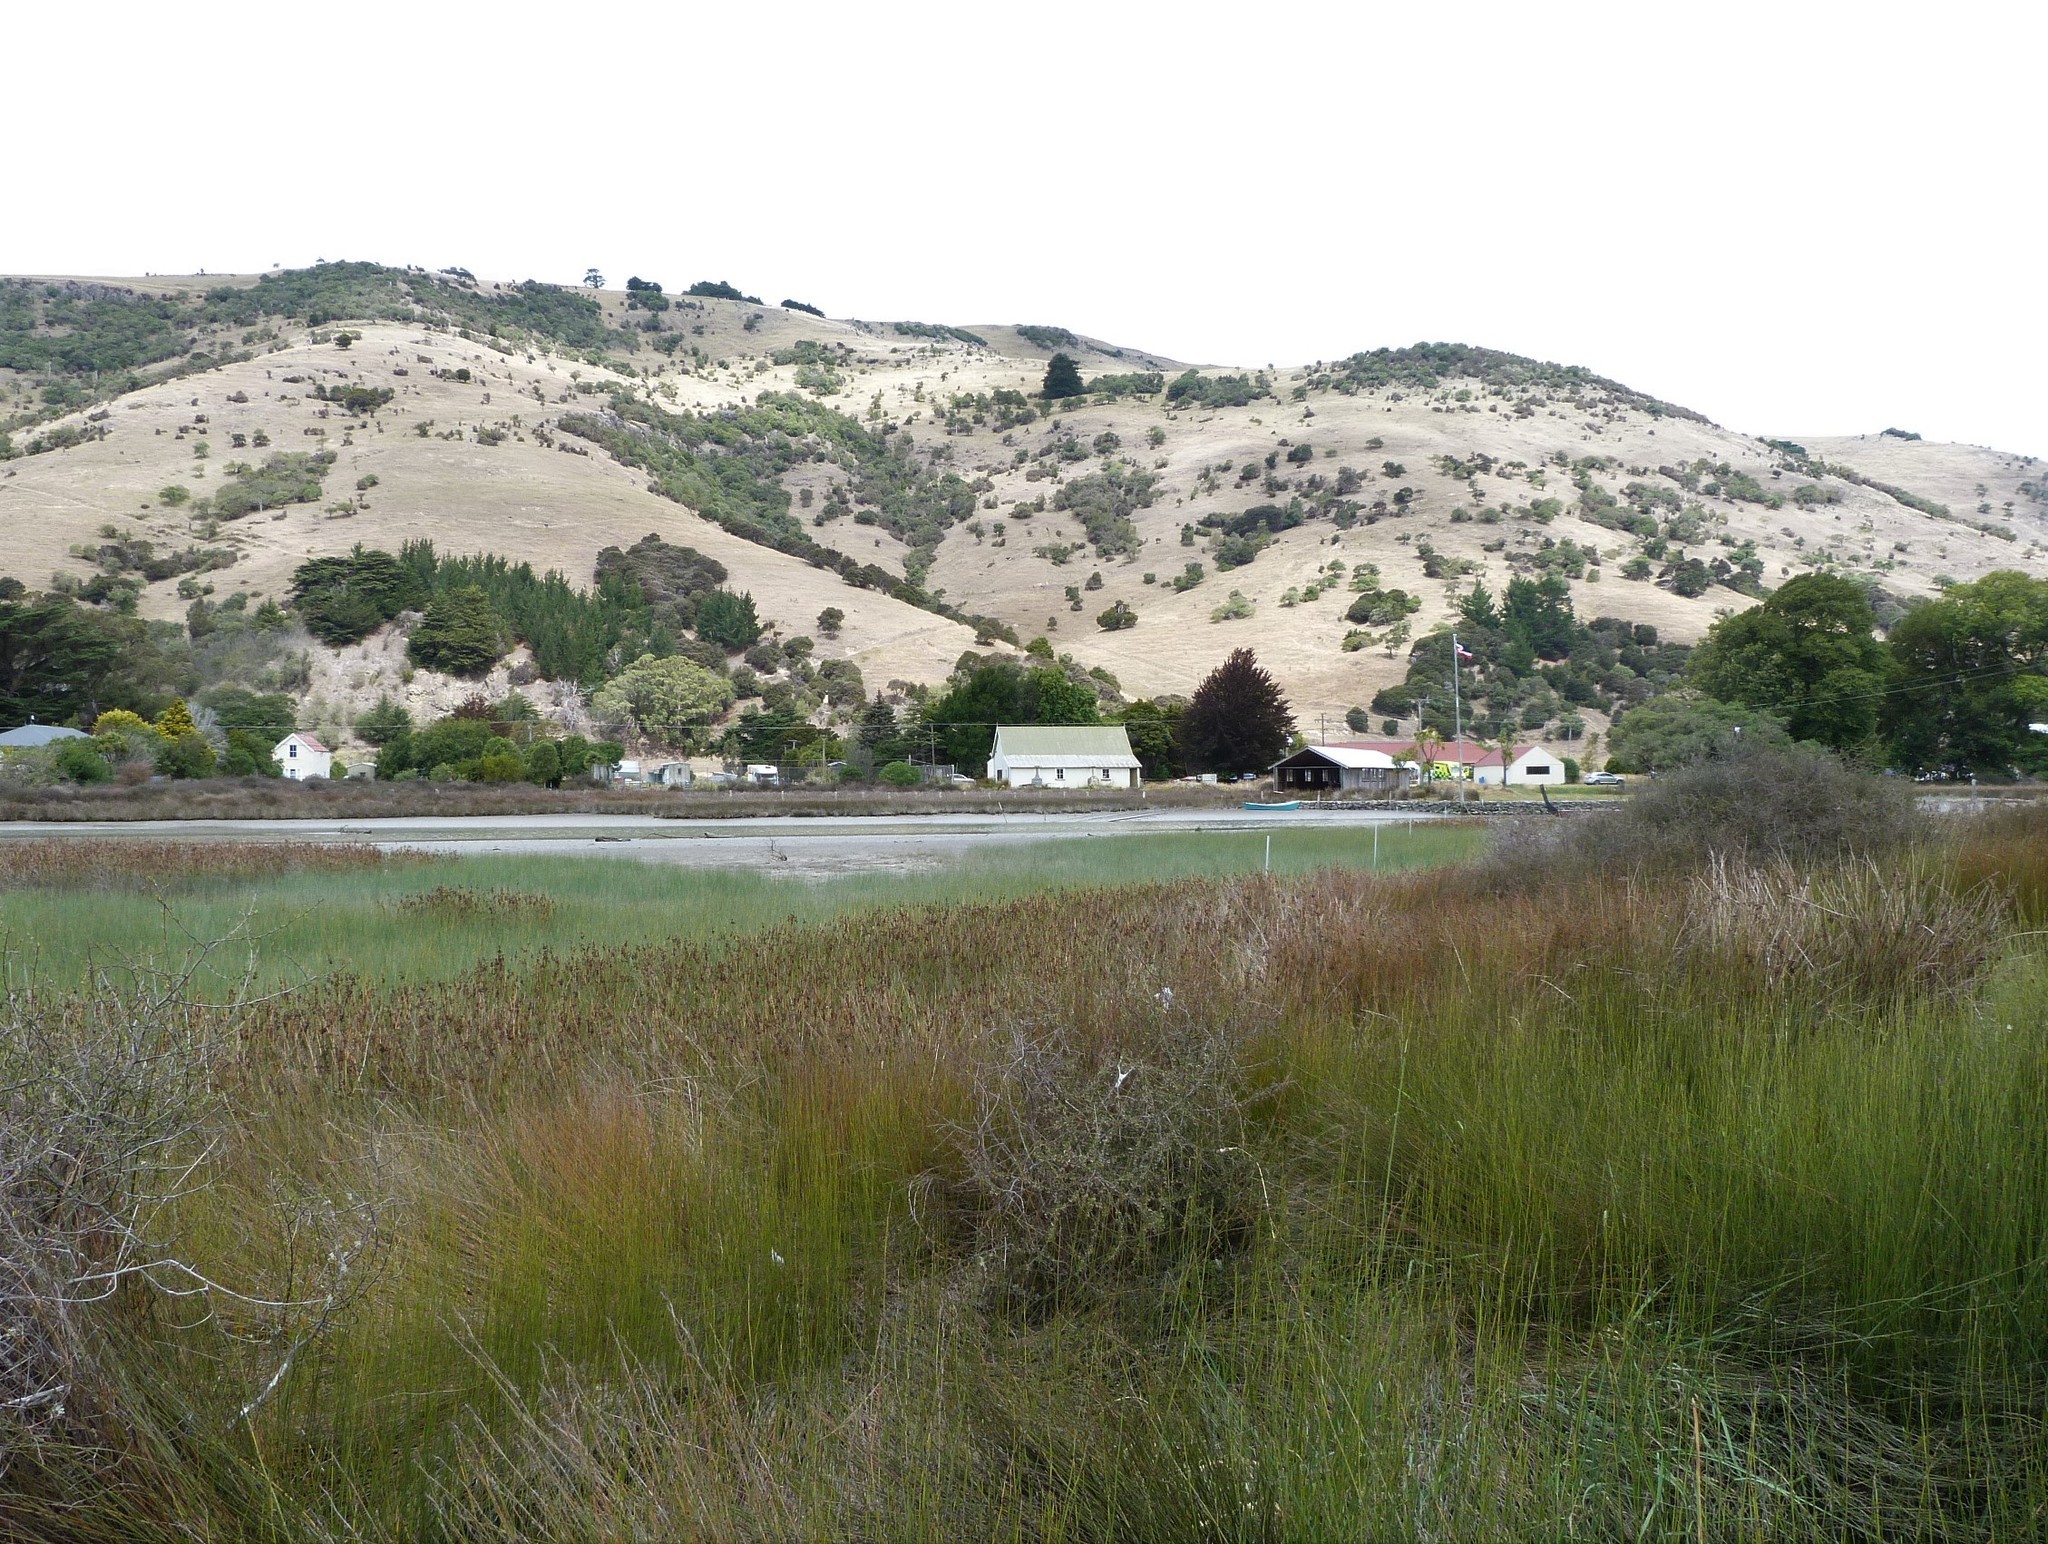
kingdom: Plantae
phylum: Tracheophyta
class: Liliopsida
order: Poales
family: Restionaceae
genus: Apodasmia
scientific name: Apodasmia similis
